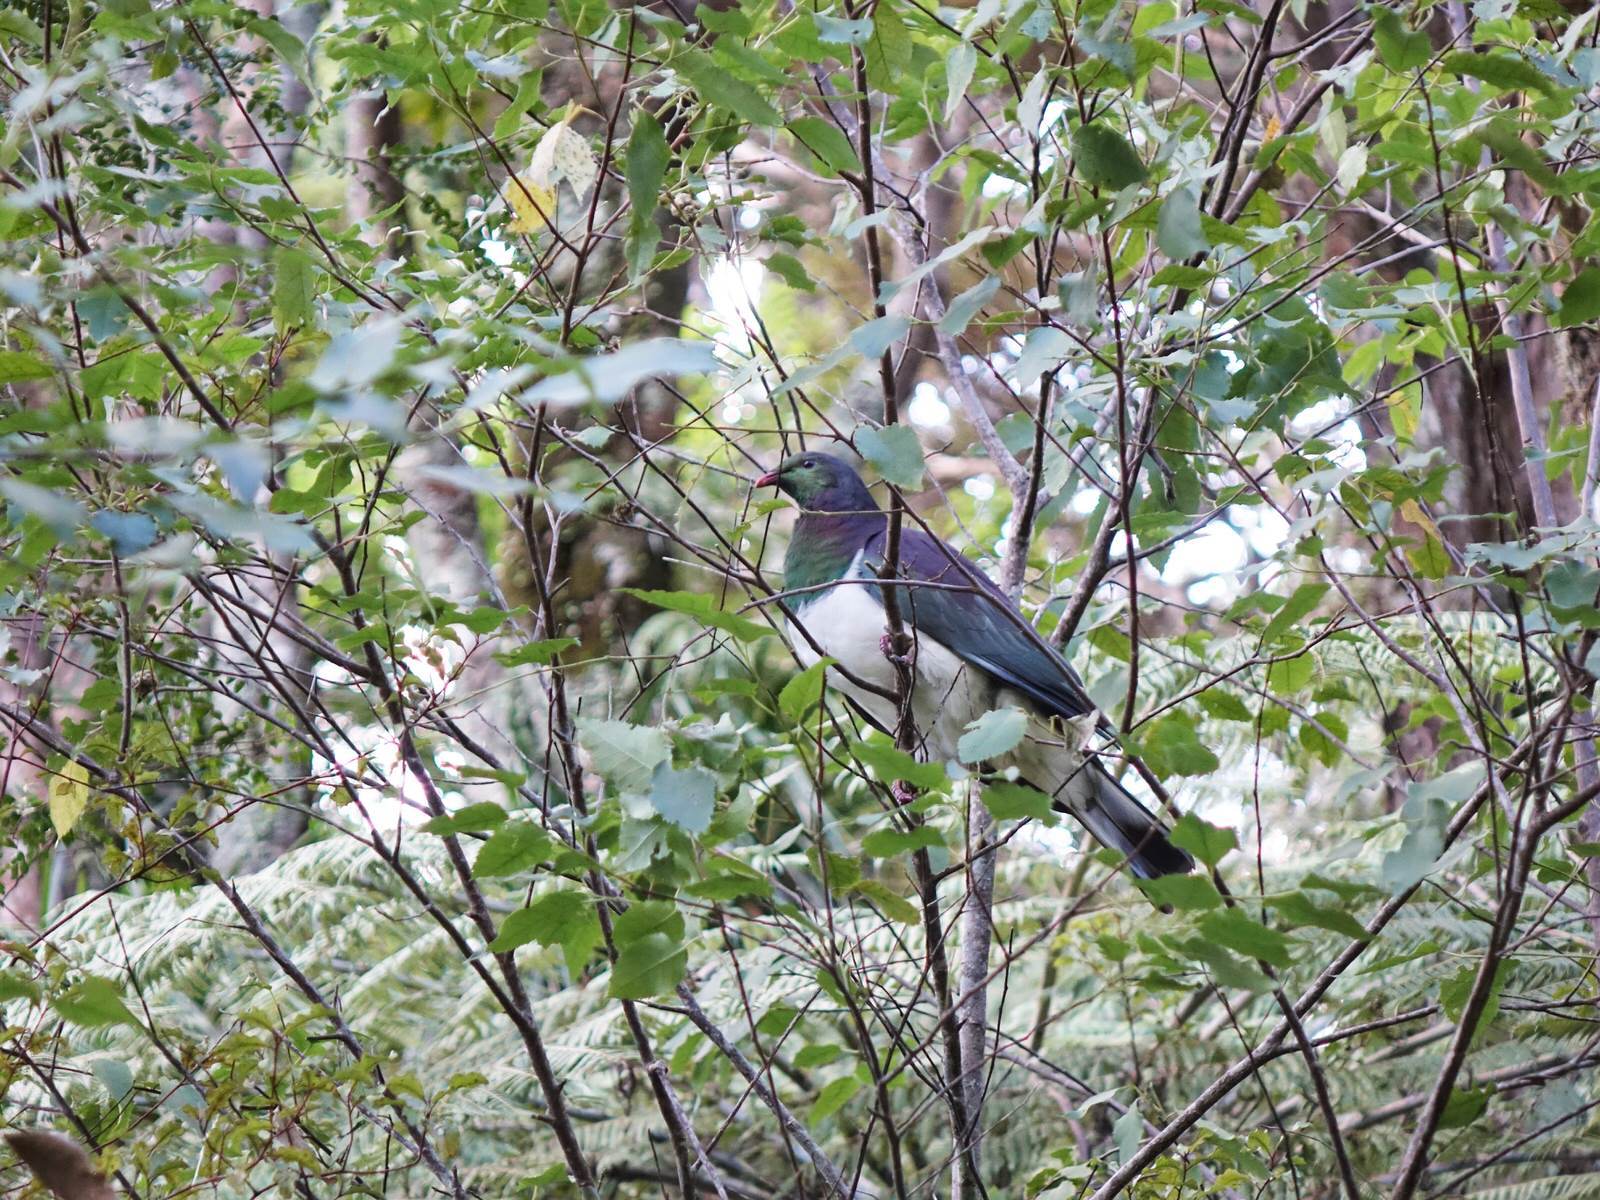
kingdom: Animalia
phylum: Chordata
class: Aves
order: Columbiformes
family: Columbidae
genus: Hemiphaga
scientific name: Hemiphaga novaeseelandiae
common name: New zealand pigeon
